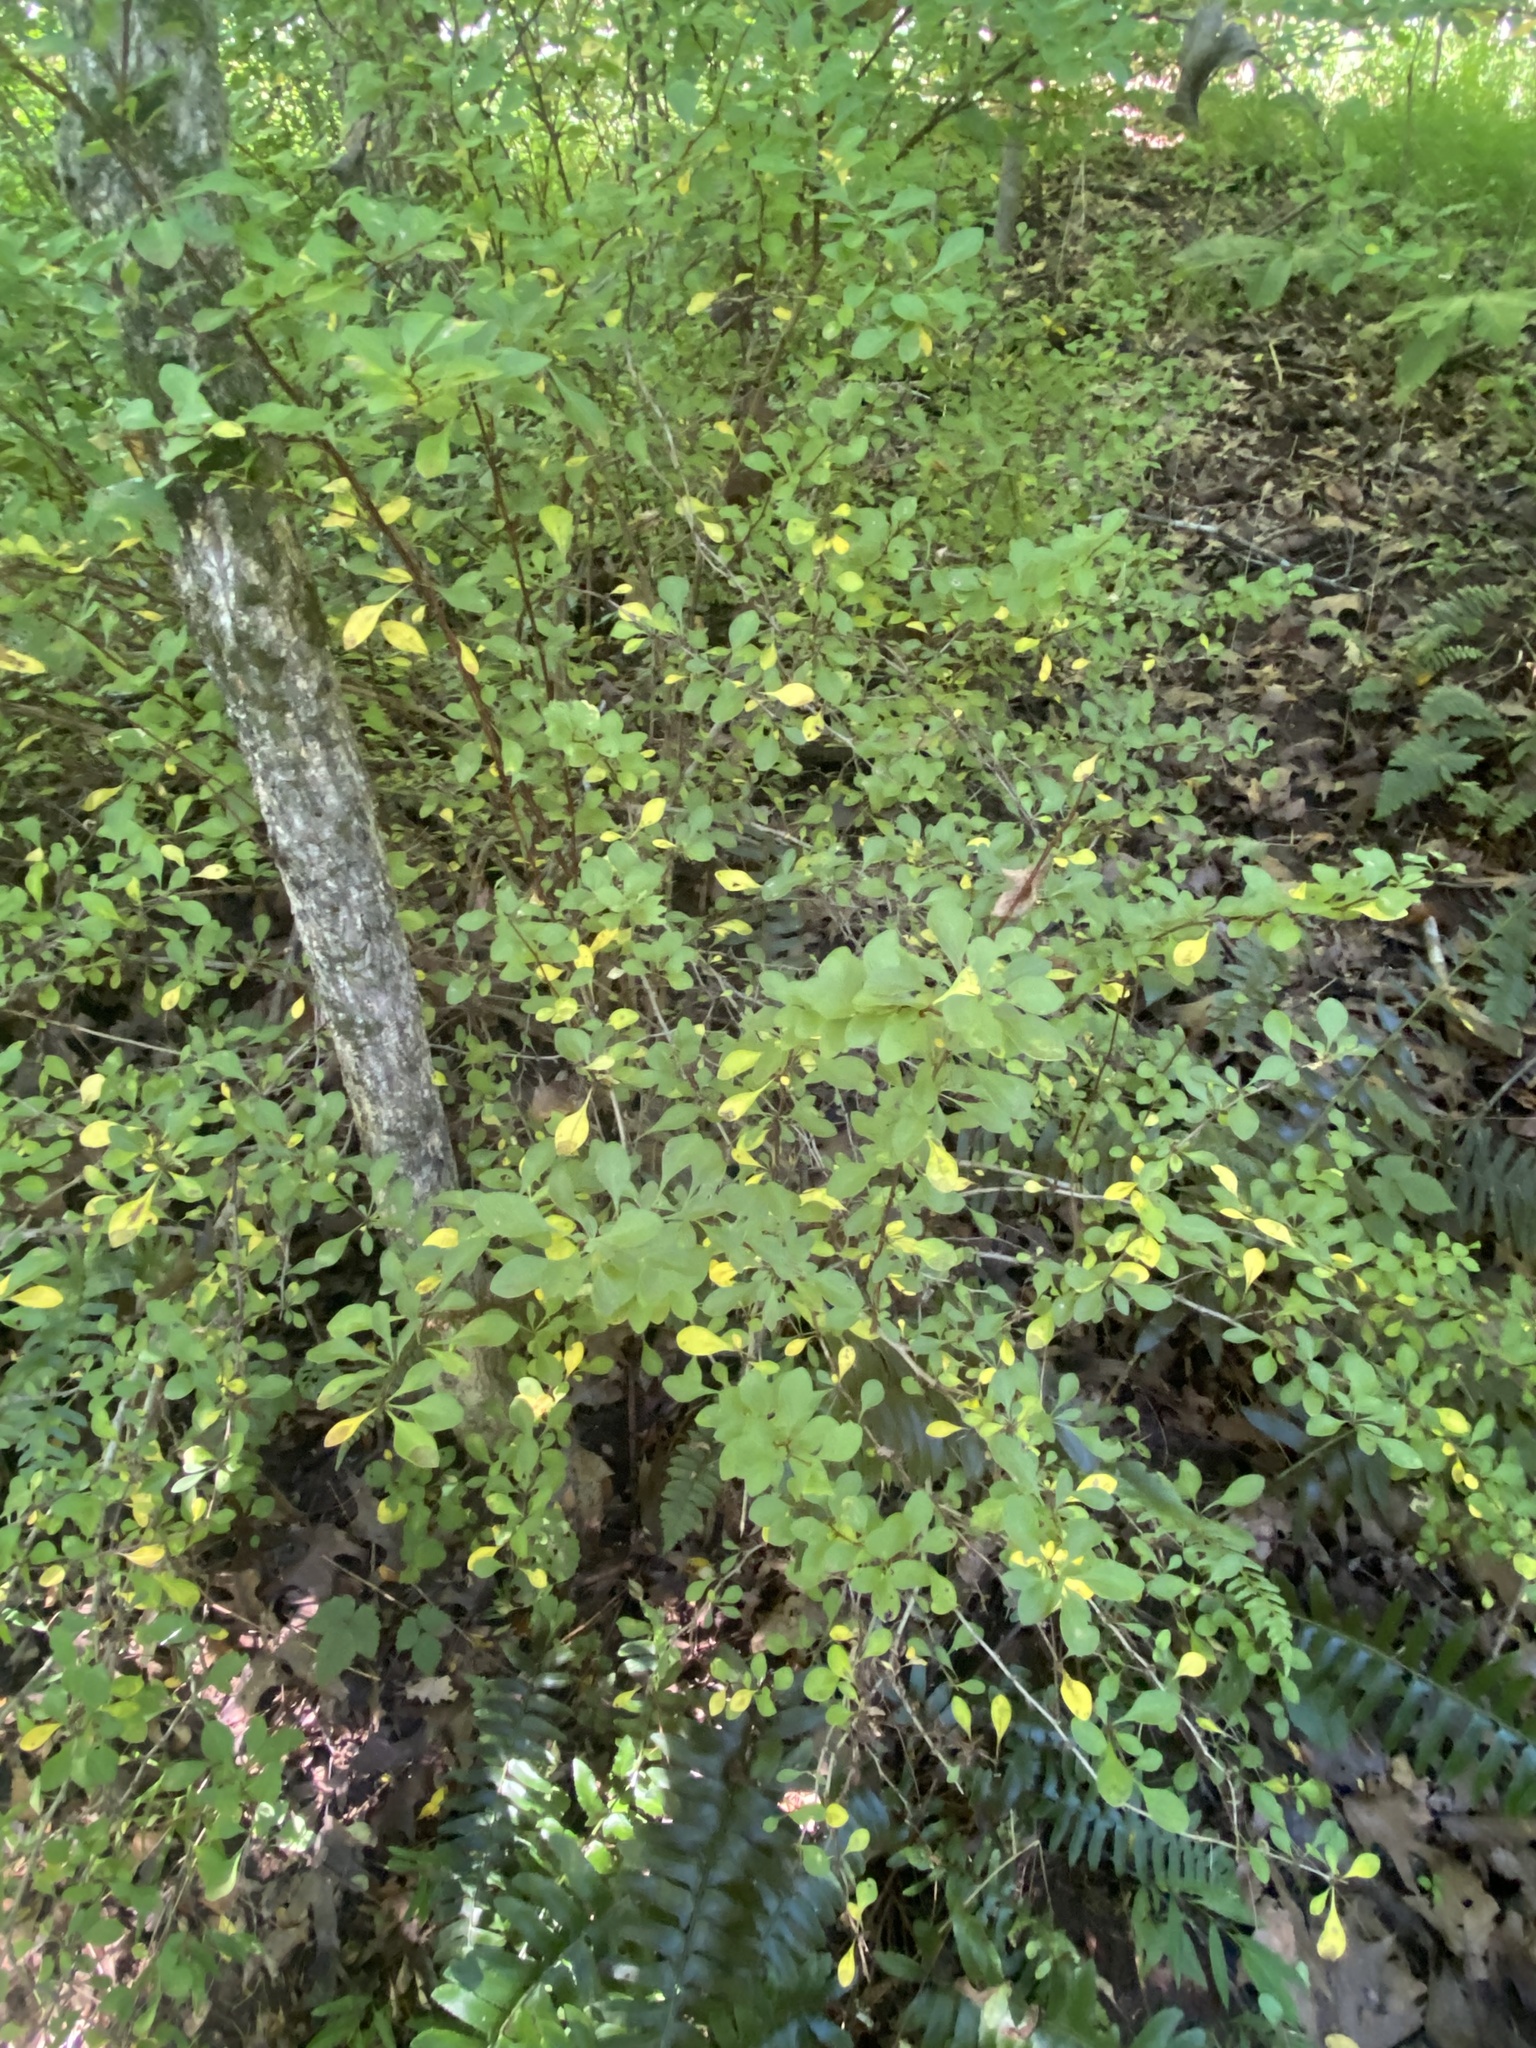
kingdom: Plantae
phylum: Tracheophyta
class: Magnoliopsida
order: Ranunculales
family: Berberidaceae
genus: Berberis
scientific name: Berberis thunbergii
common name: Japanese barberry
